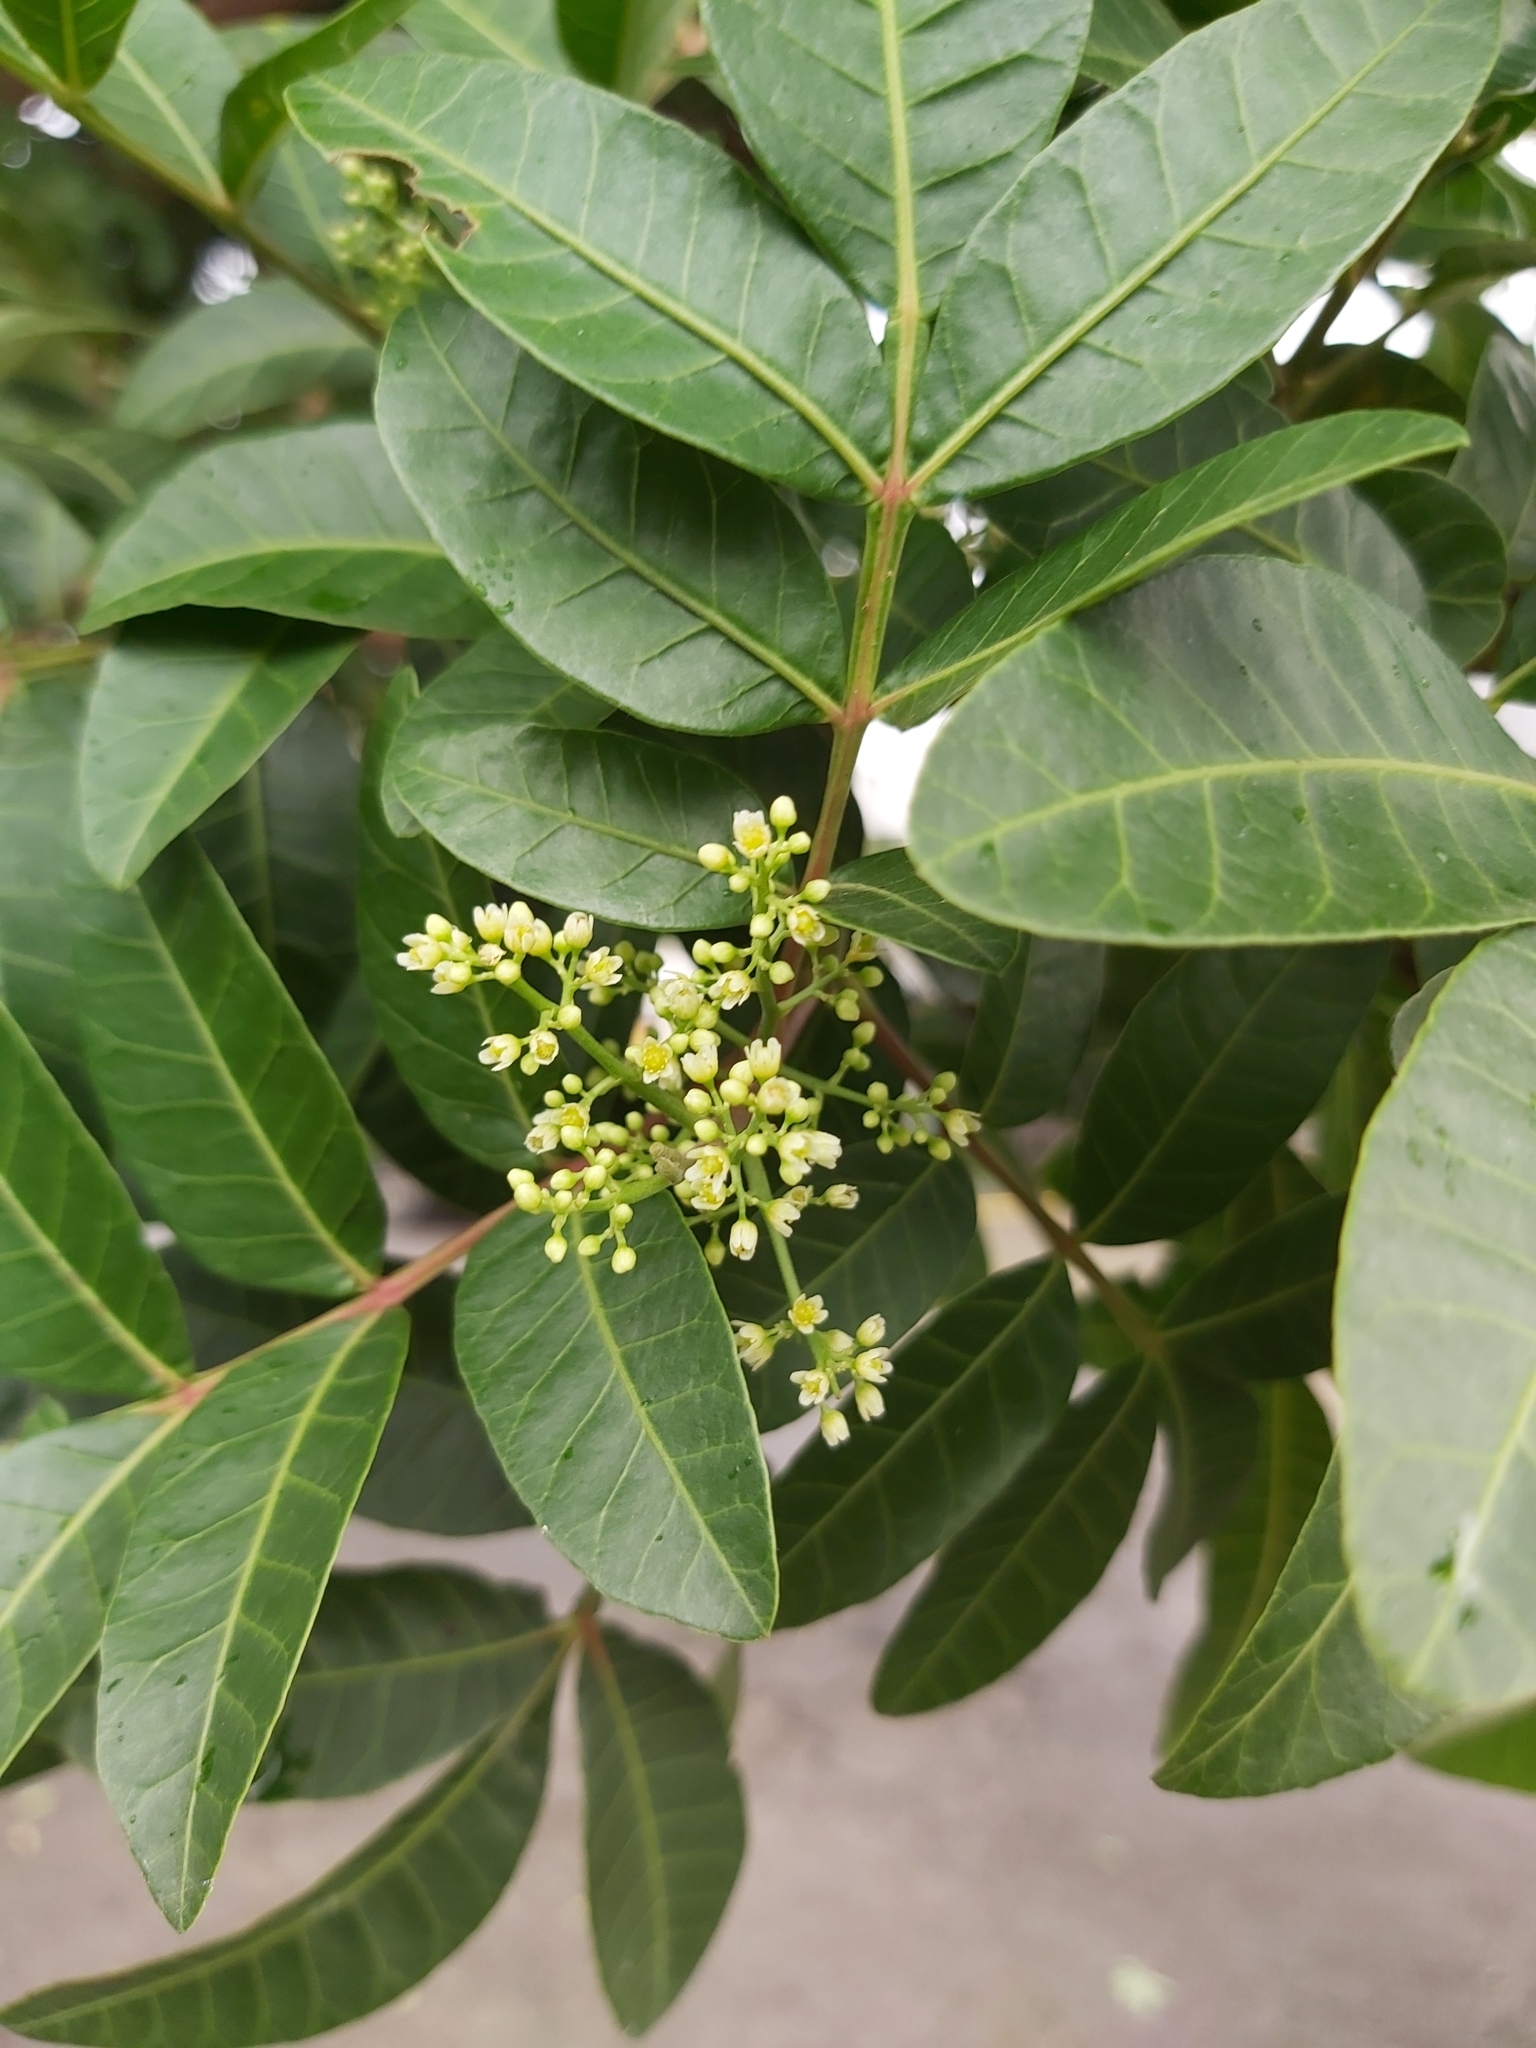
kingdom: Plantae
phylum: Tracheophyta
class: Magnoliopsida
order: Sapindales
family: Anacardiaceae
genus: Schinus
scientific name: Schinus terebinthifolia
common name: Brazilian peppertree
